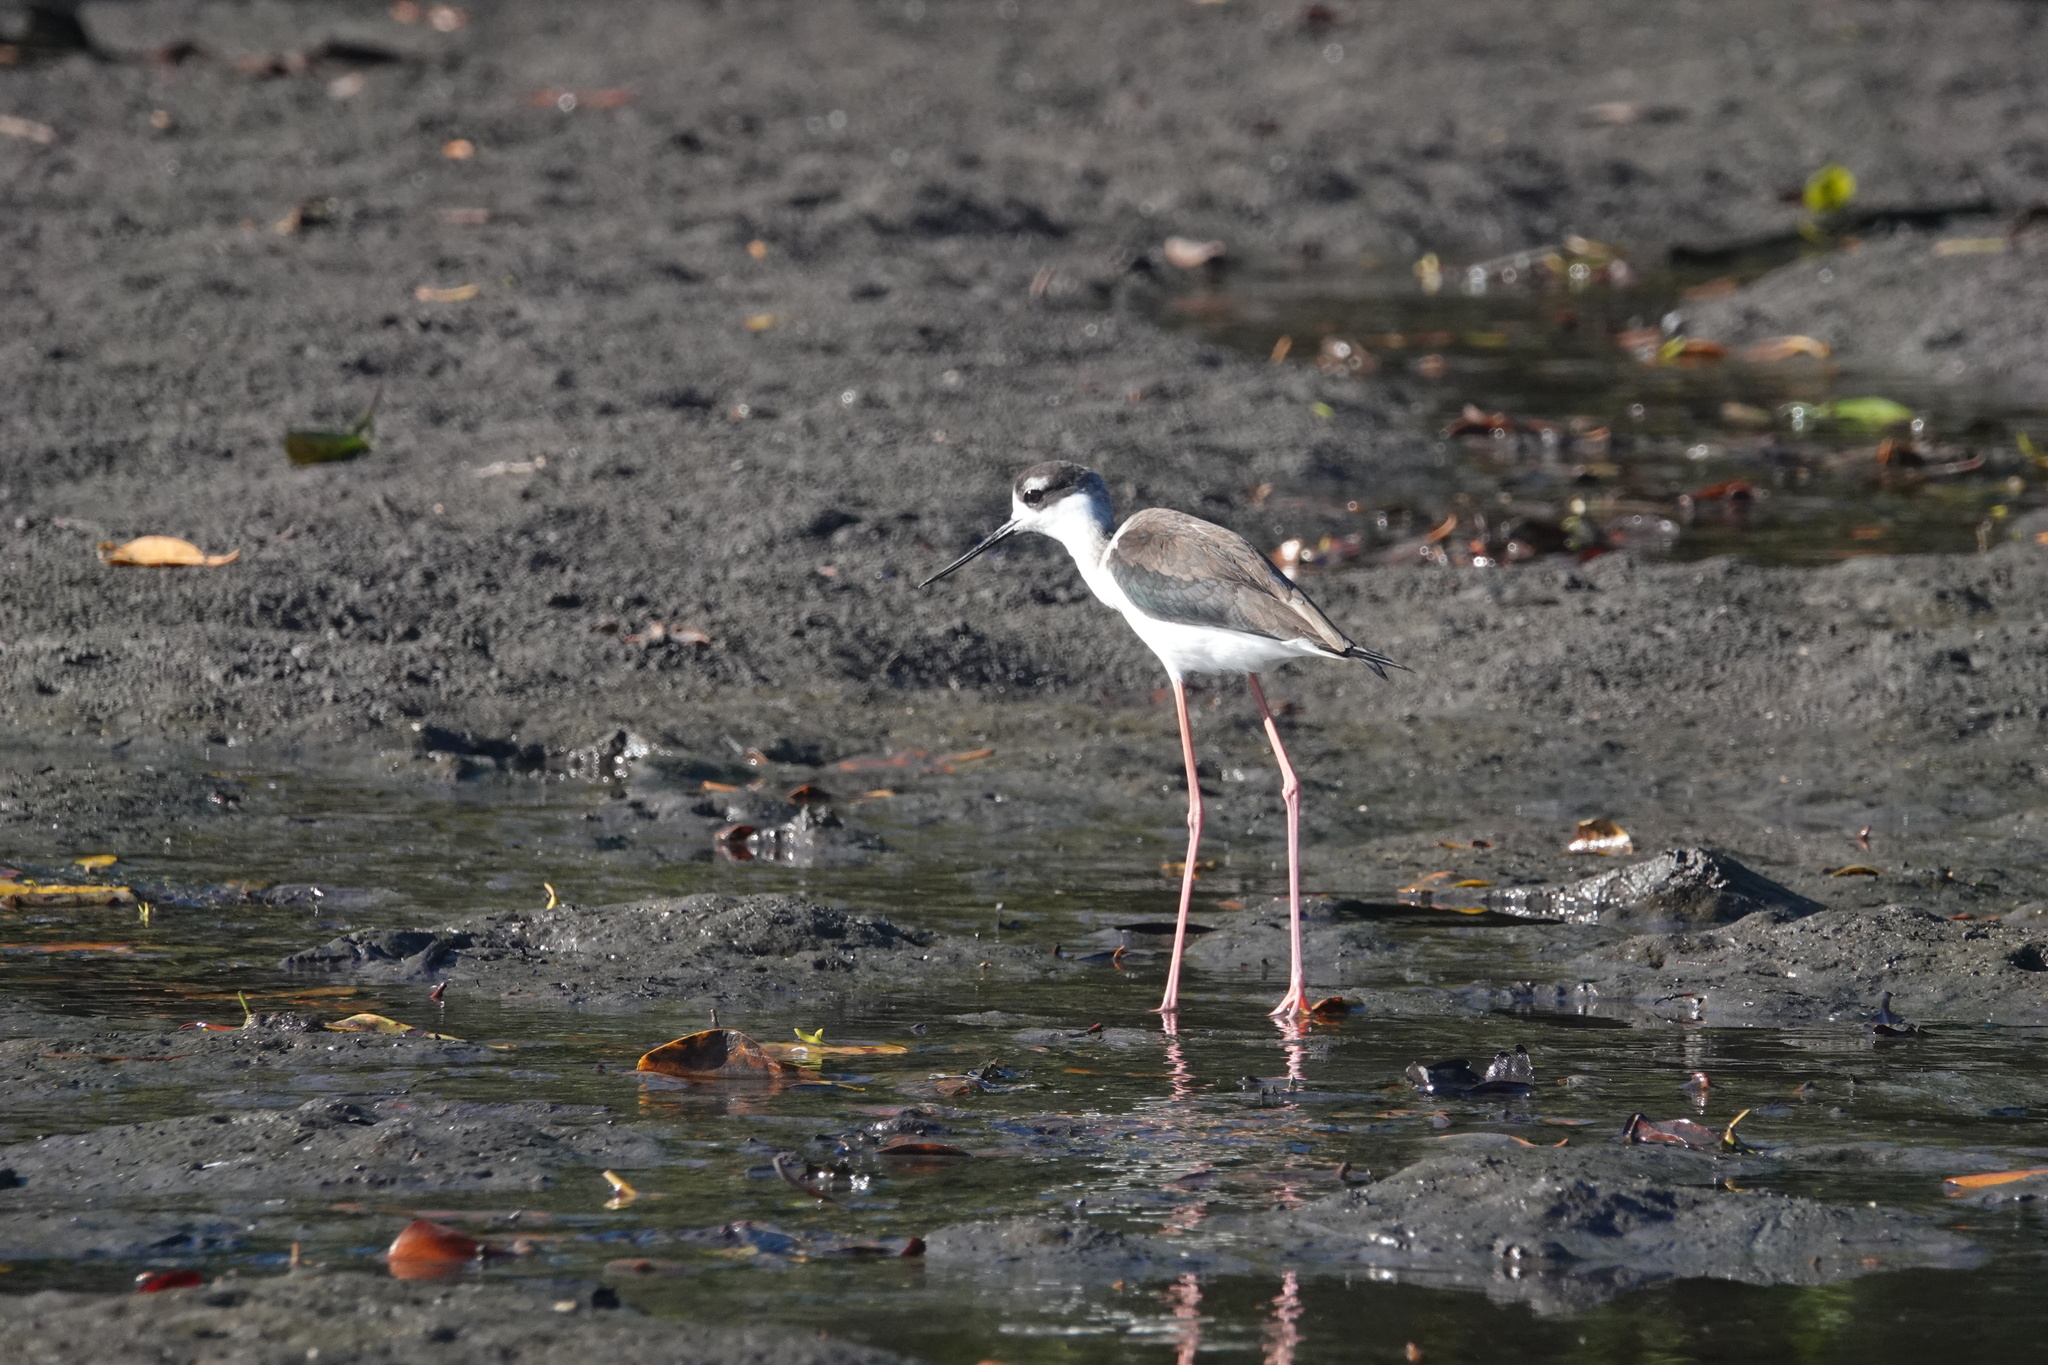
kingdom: Animalia
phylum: Chordata
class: Aves
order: Charadriiformes
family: Recurvirostridae
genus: Himantopus
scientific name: Himantopus mexicanus
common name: Black-necked stilt
